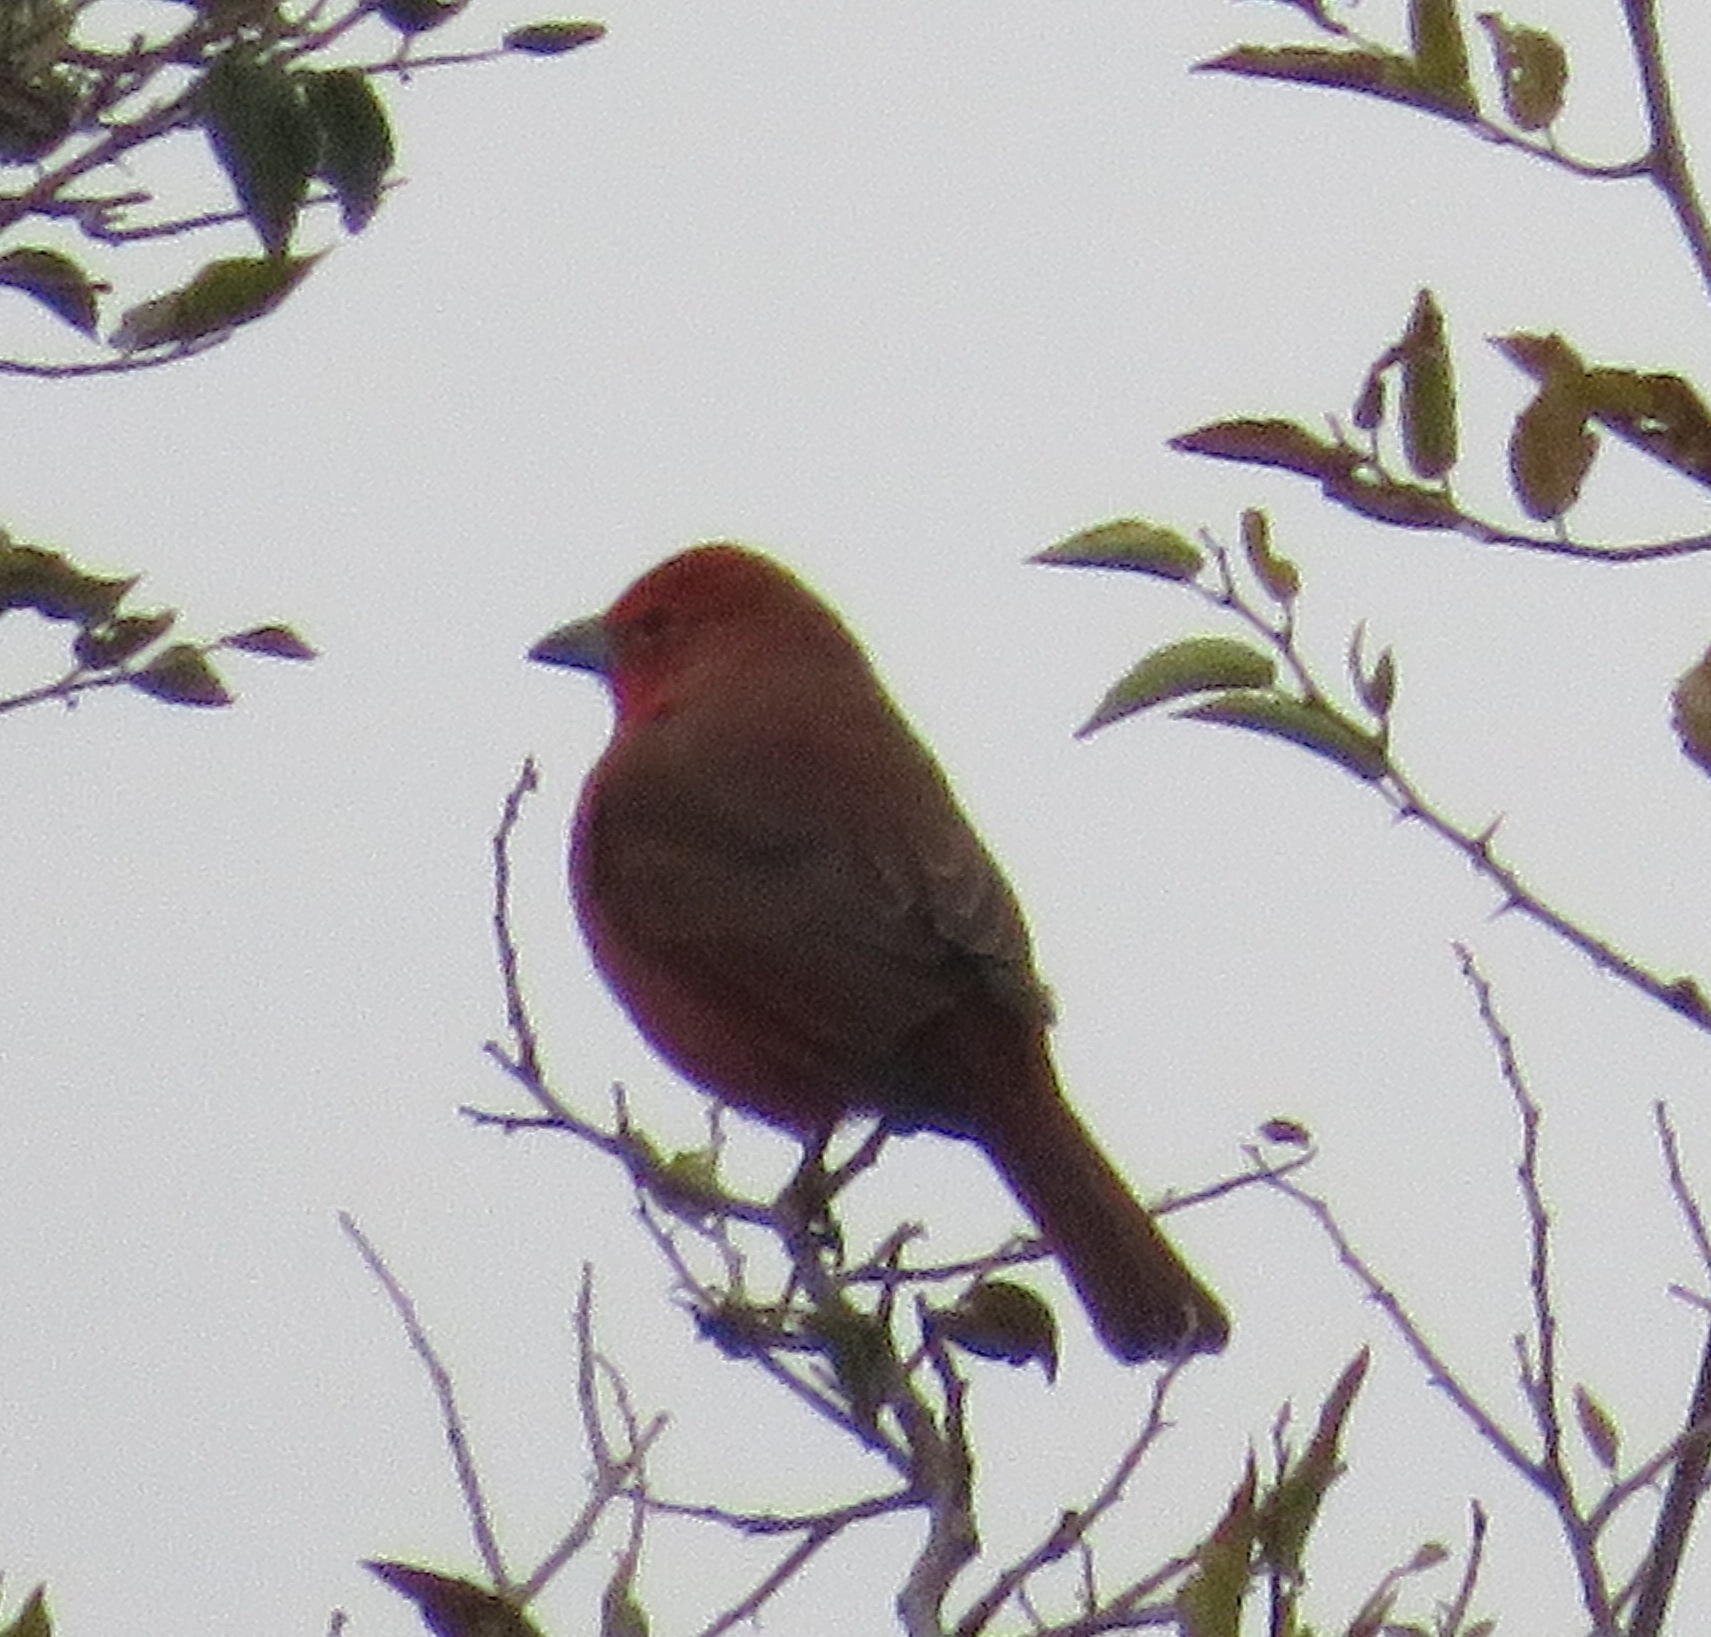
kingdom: Animalia
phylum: Chordata
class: Aves
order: Passeriformes
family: Cardinalidae
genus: Piranga
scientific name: Piranga flava
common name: Red tanager
